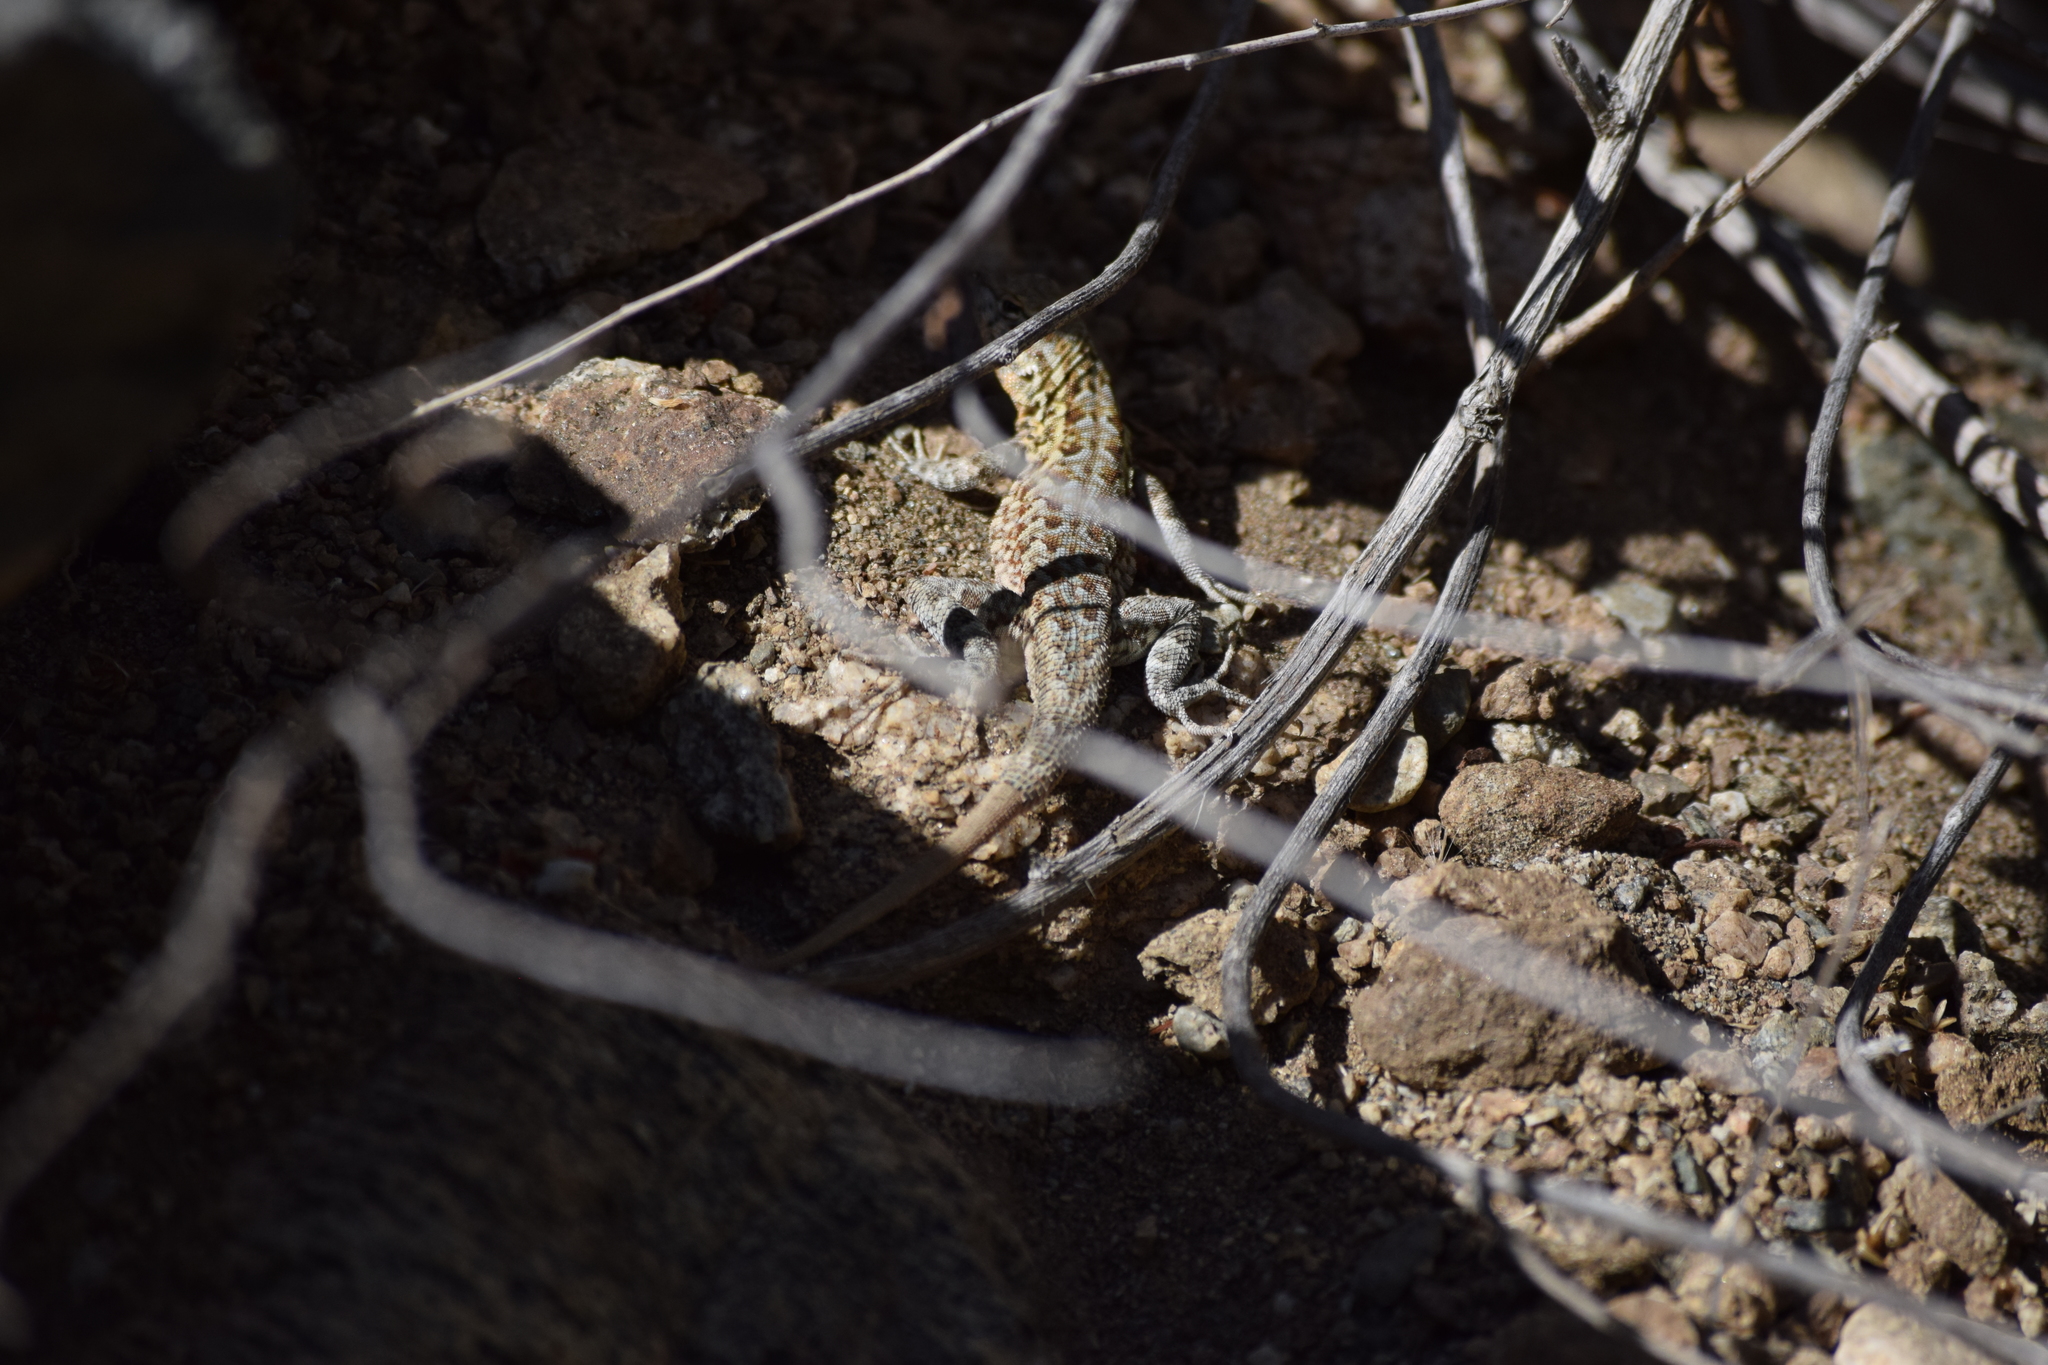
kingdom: Animalia
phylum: Chordata
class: Squamata
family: Phrynosomatidae
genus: Uta
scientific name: Uta stansburiana
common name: Side-blotched lizard
